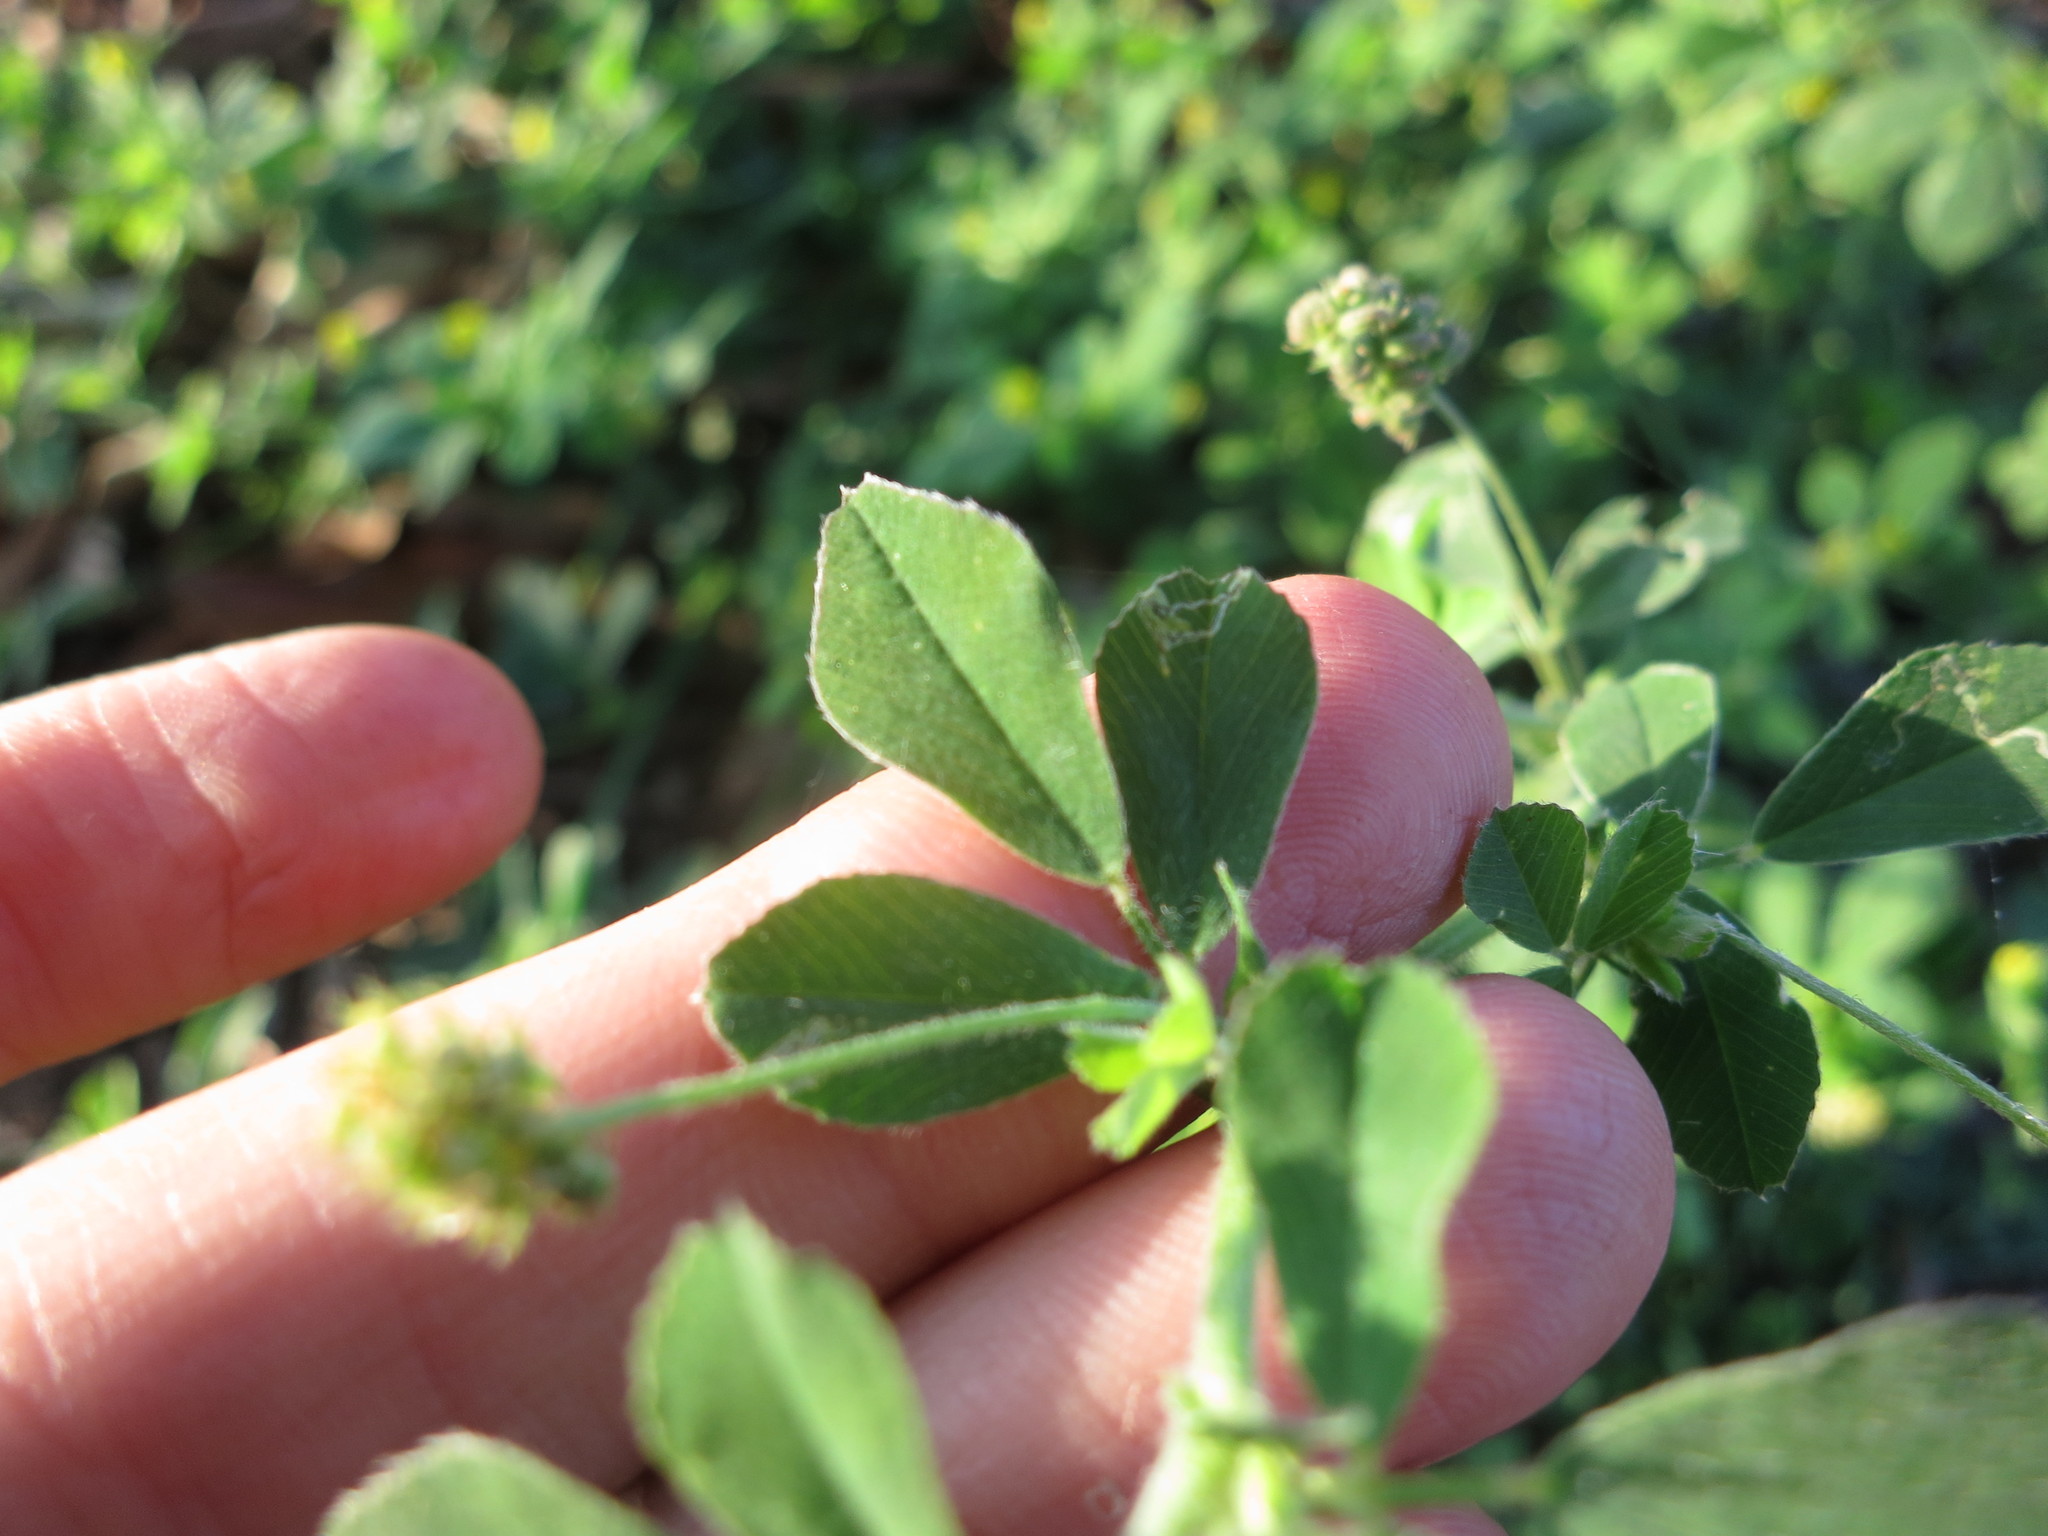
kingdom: Plantae
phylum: Tracheophyta
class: Magnoliopsida
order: Fabales
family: Fabaceae
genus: Medicago
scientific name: Medicago lupulina
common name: Black medick
